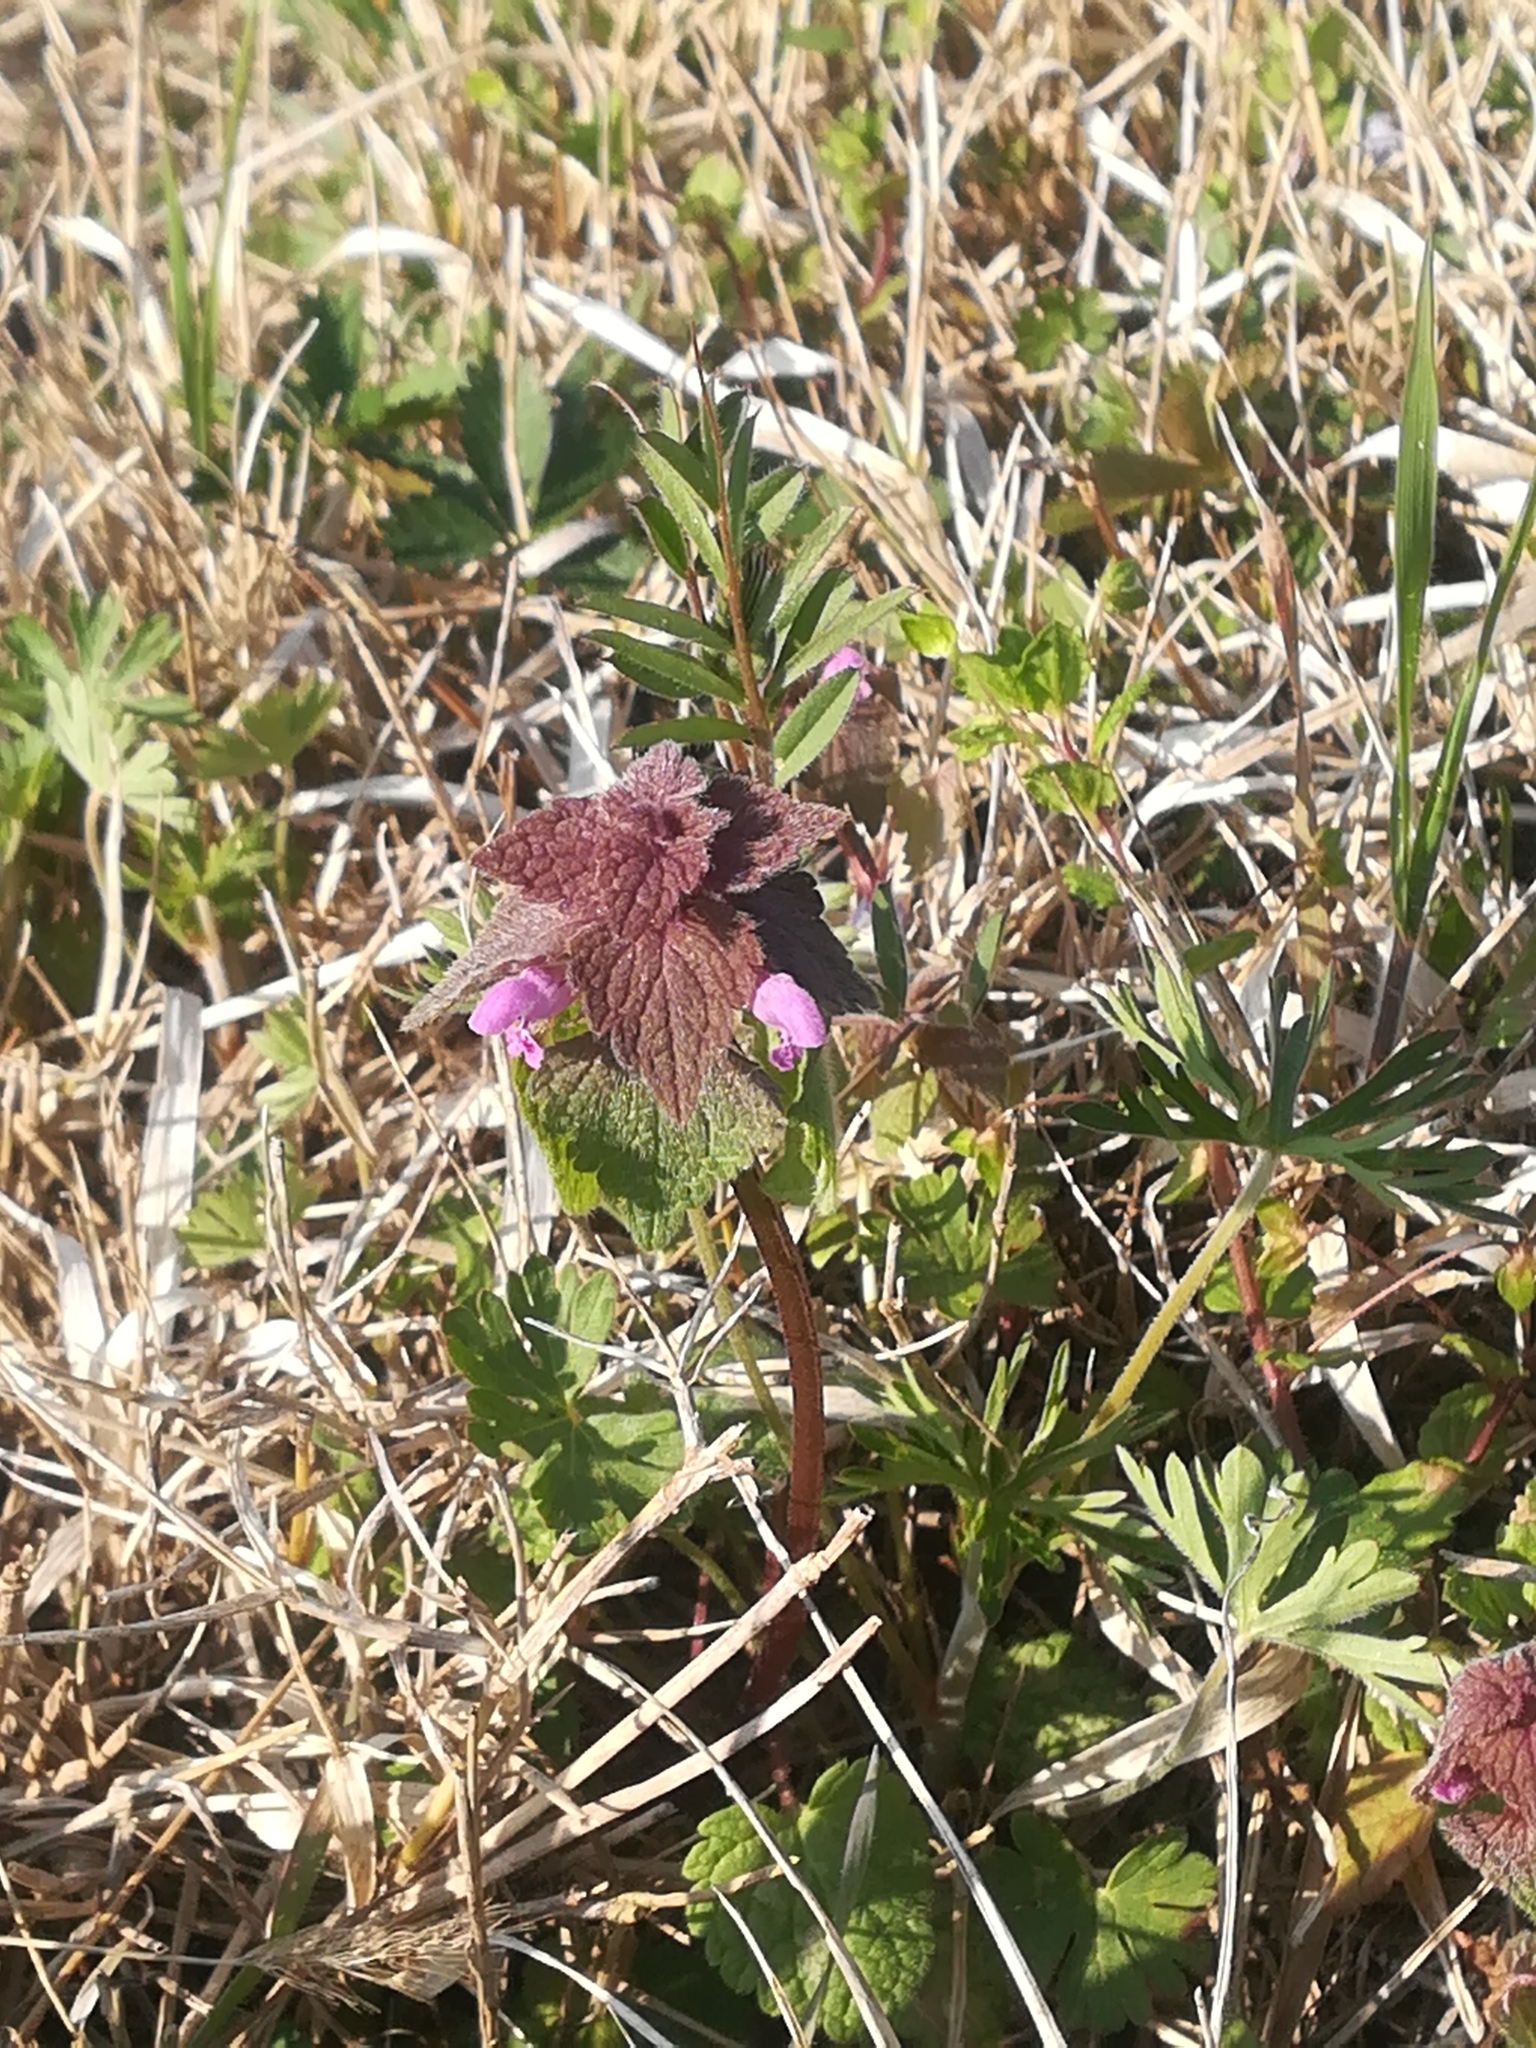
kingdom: Plantae
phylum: Tracheophyta
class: Magnoliopsida
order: Lamiales
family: Lamiaceae
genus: Lamium
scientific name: Lamium purpureum
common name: Red dead-nettle
